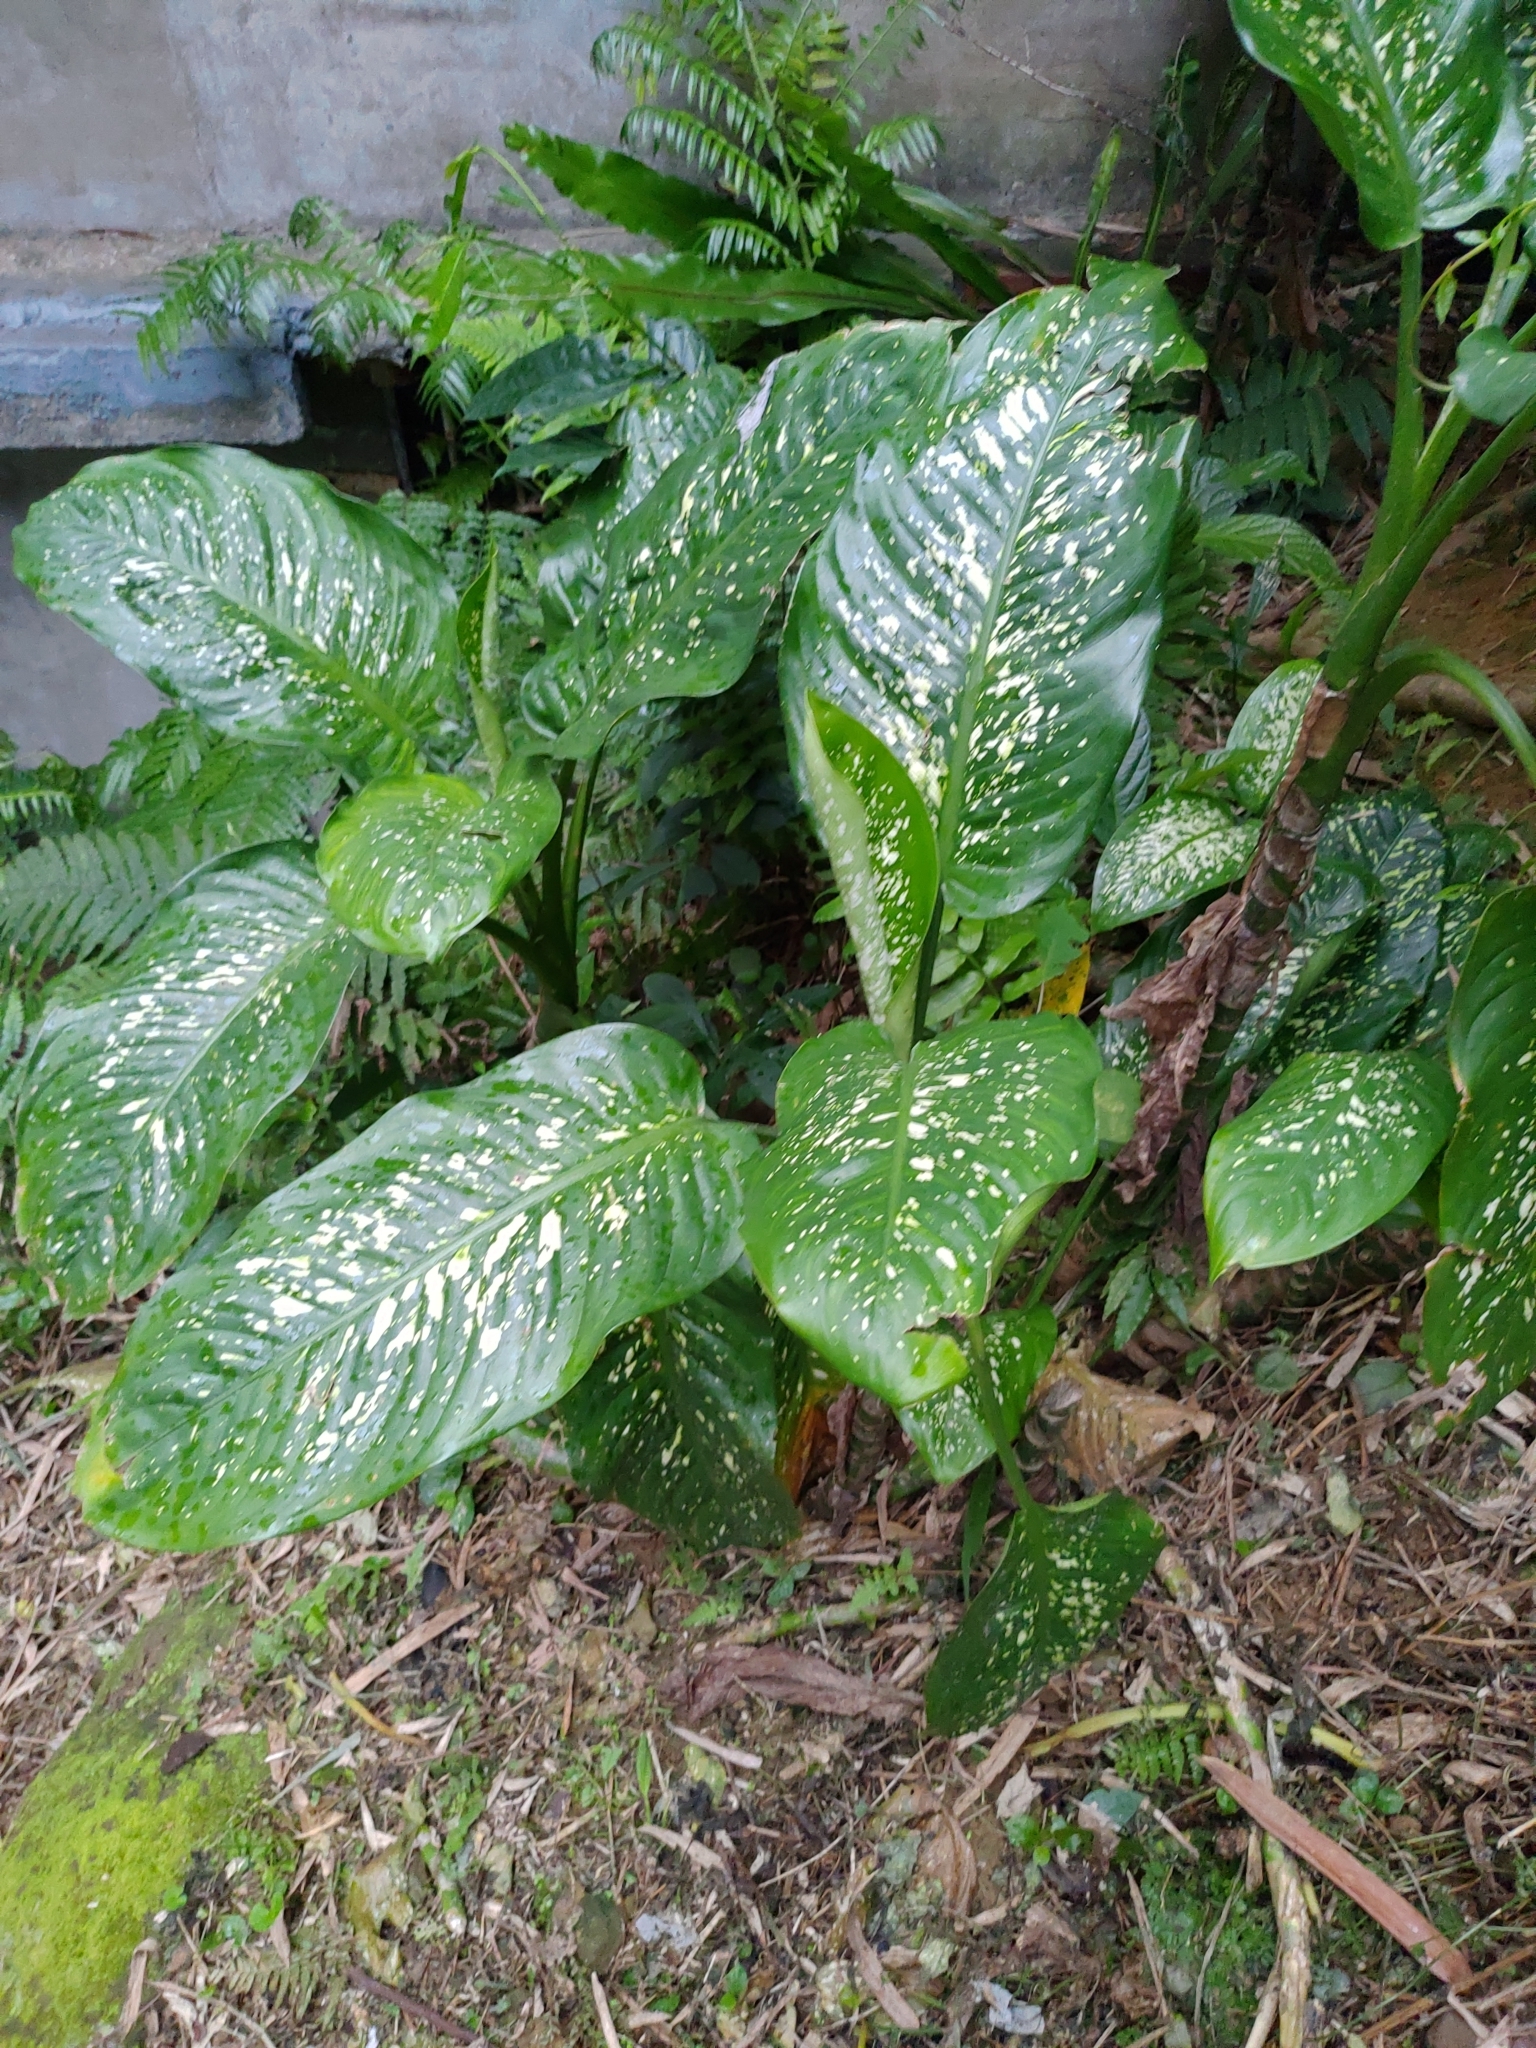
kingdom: Plantae
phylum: Tracheophyta
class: Liliopsida
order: Alismatales
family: Araceae
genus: Dieffenbachia
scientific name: Dieffenbachia seguine
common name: Dumbcane
